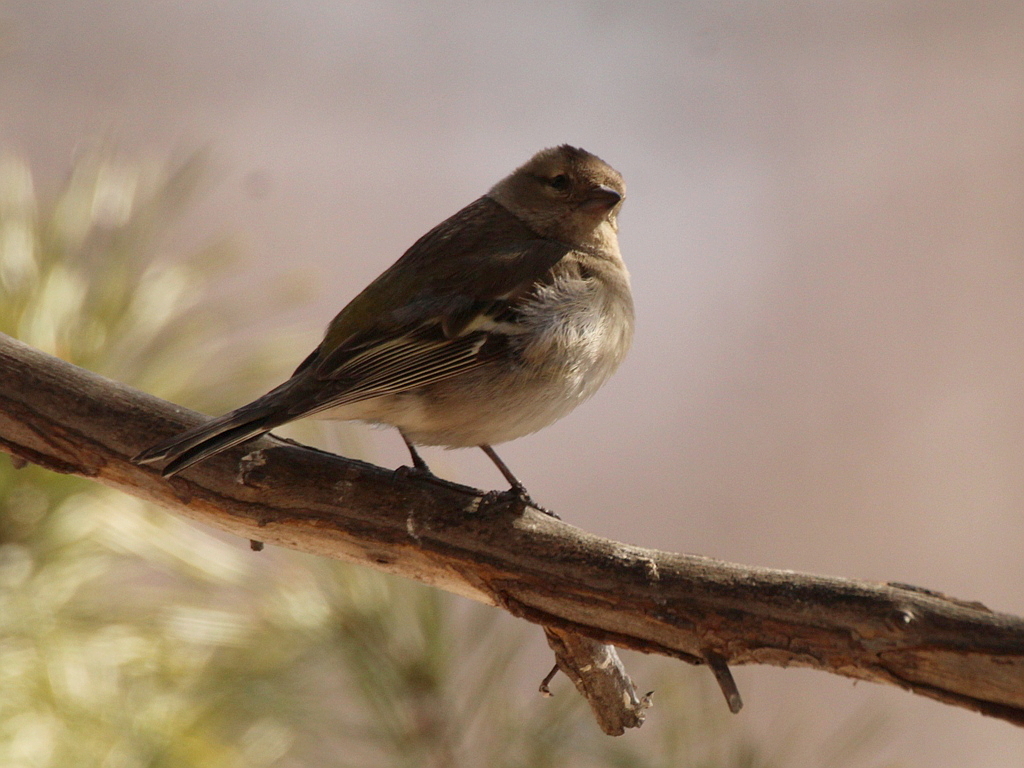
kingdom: Animalia
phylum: Chordata
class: Aves
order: Passeriformes
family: Fringillidae
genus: Fringilla
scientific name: Fringilla coelebs
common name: Common chaffinch
